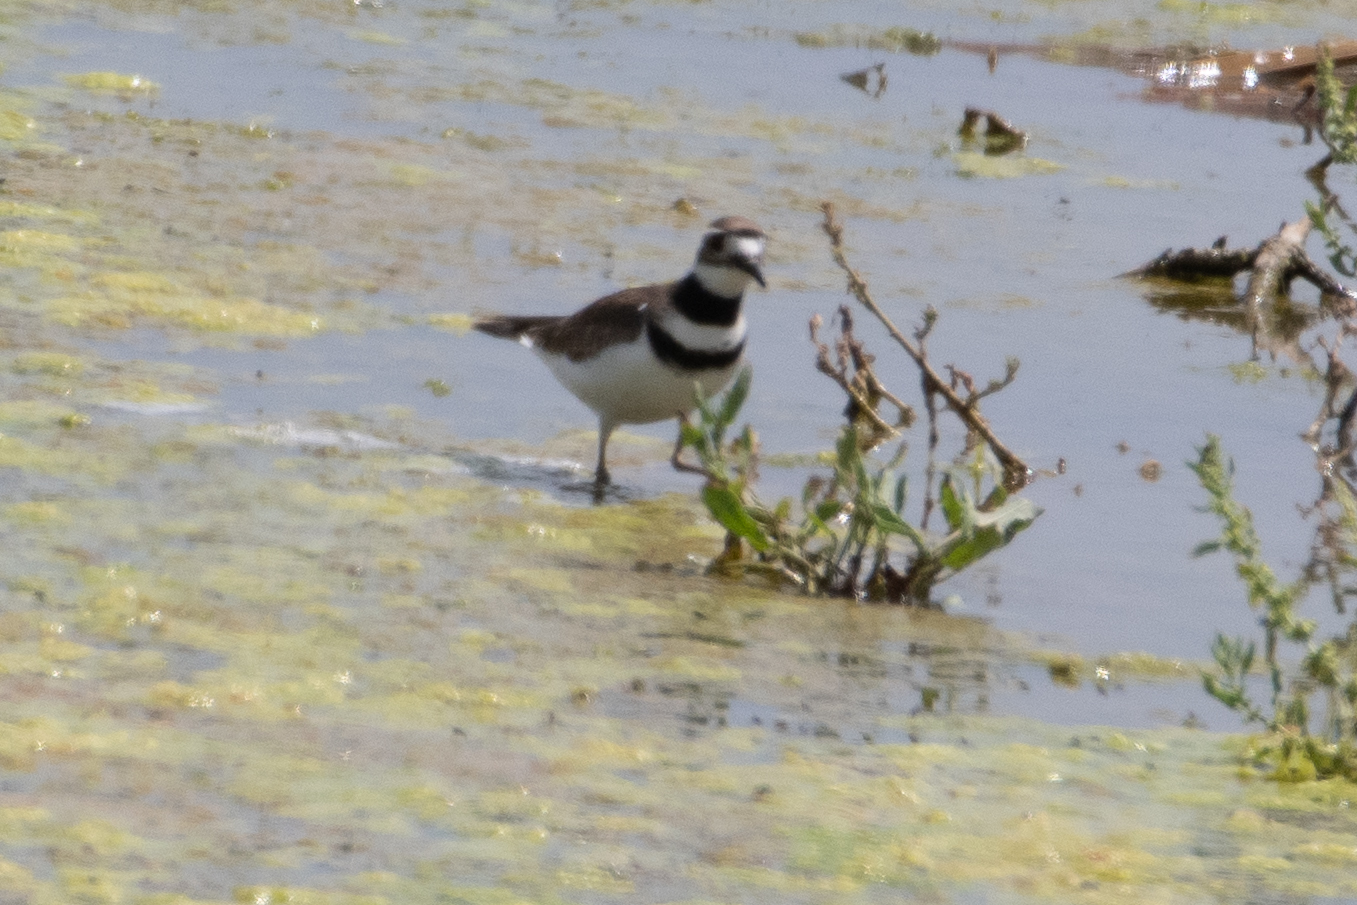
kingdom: Animalia
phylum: Chordata
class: Aves
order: Charadriiformes
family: Charadriidae
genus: Charadrius
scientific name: Charadrius vociferus
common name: Killdeer
